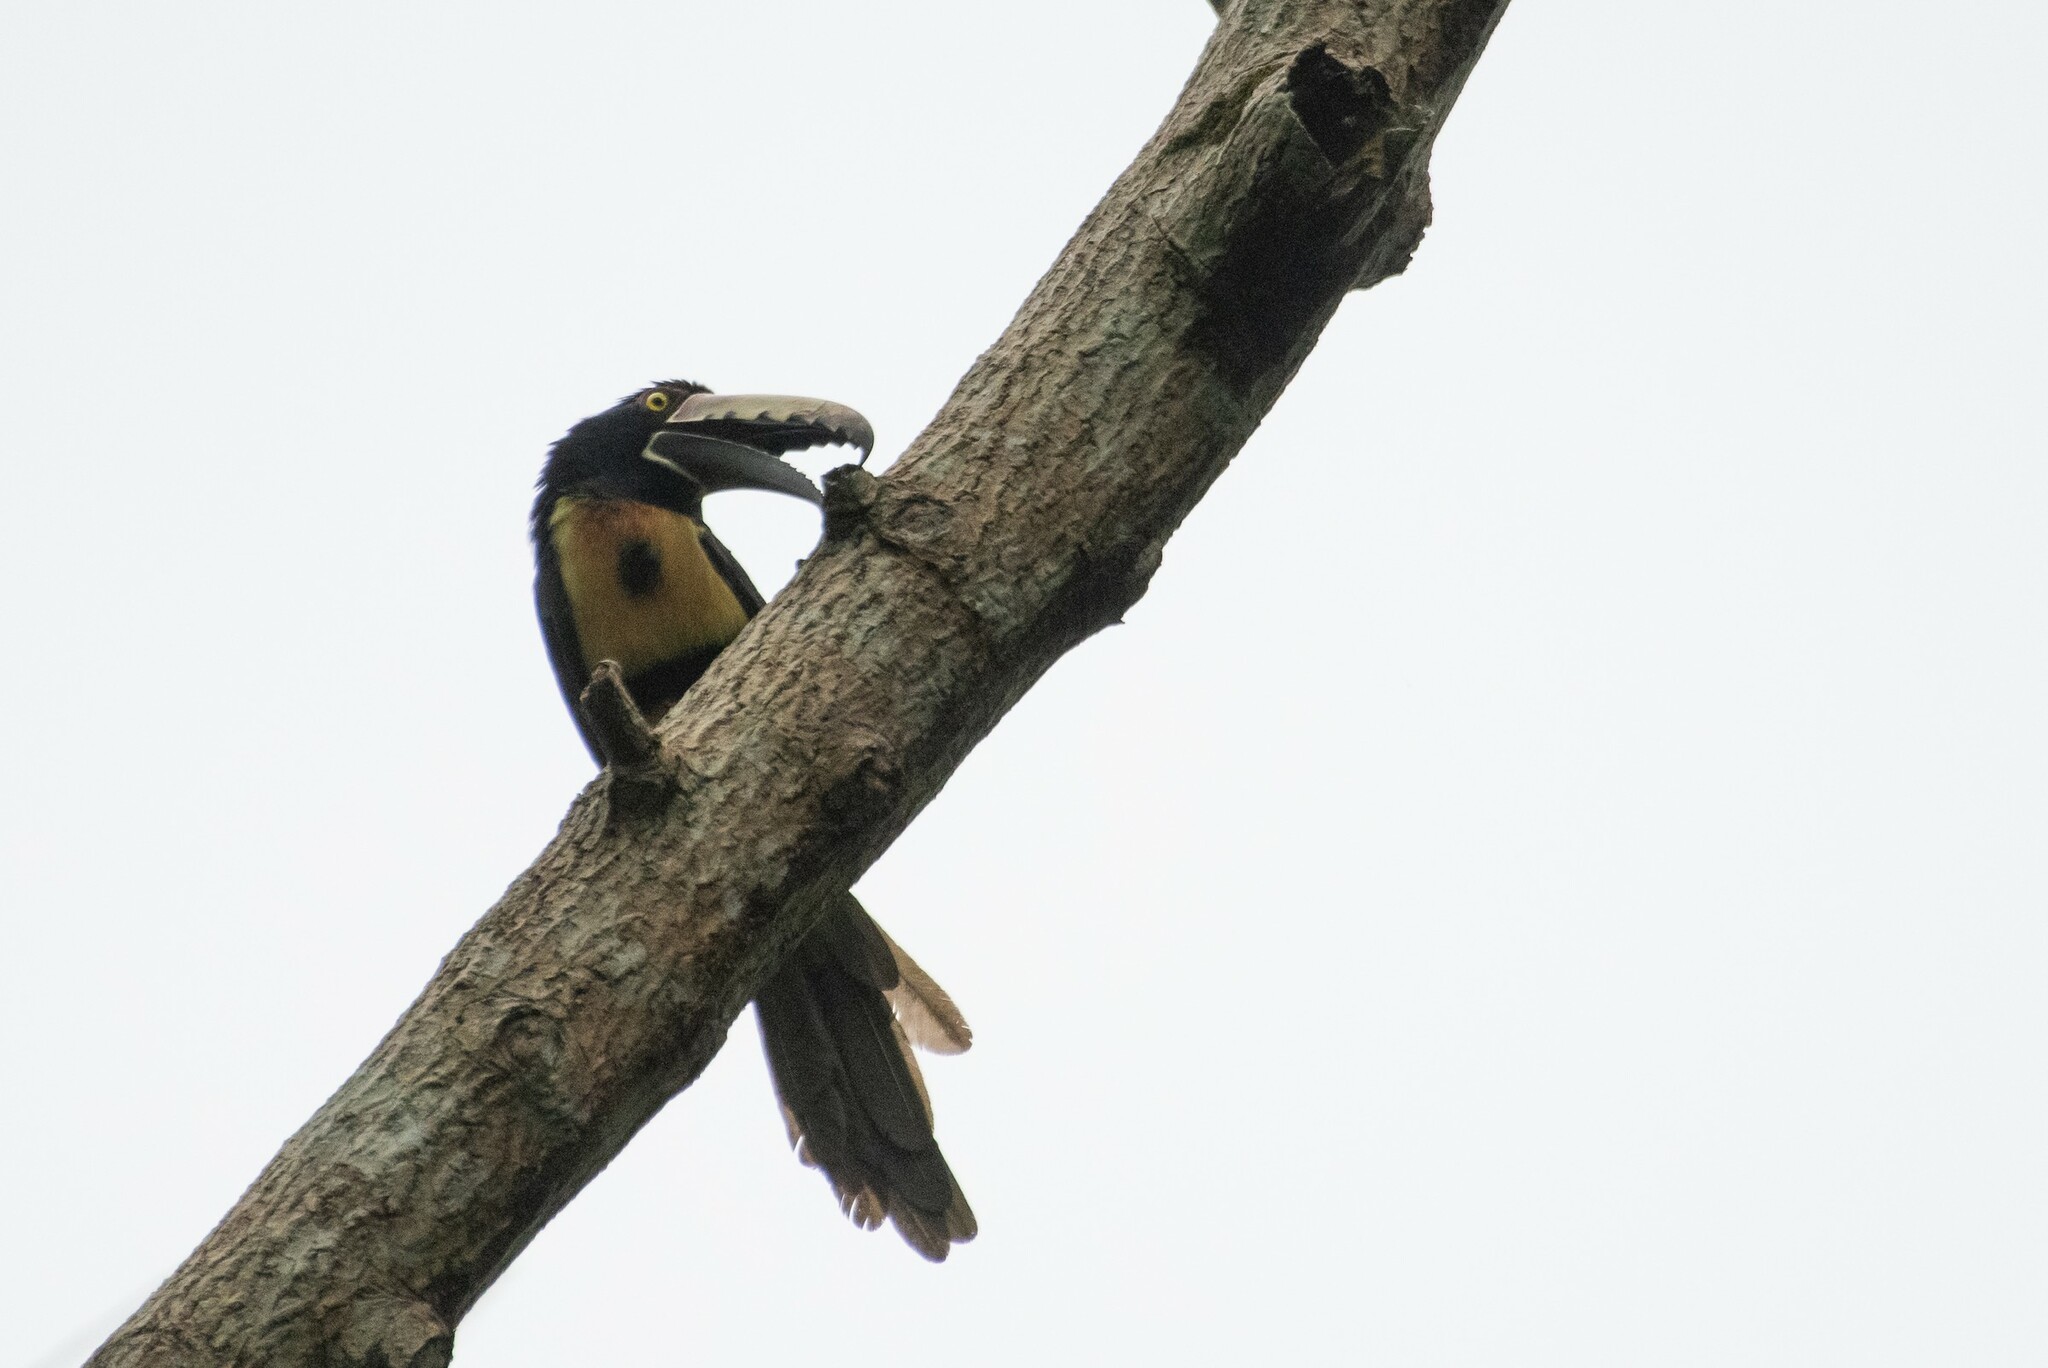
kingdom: Animalia
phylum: Chordata
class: Aves
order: Piciformes
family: Ramphastidae
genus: Pteroglossus
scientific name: Pteroglossus torquatus
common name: Collared aracari
